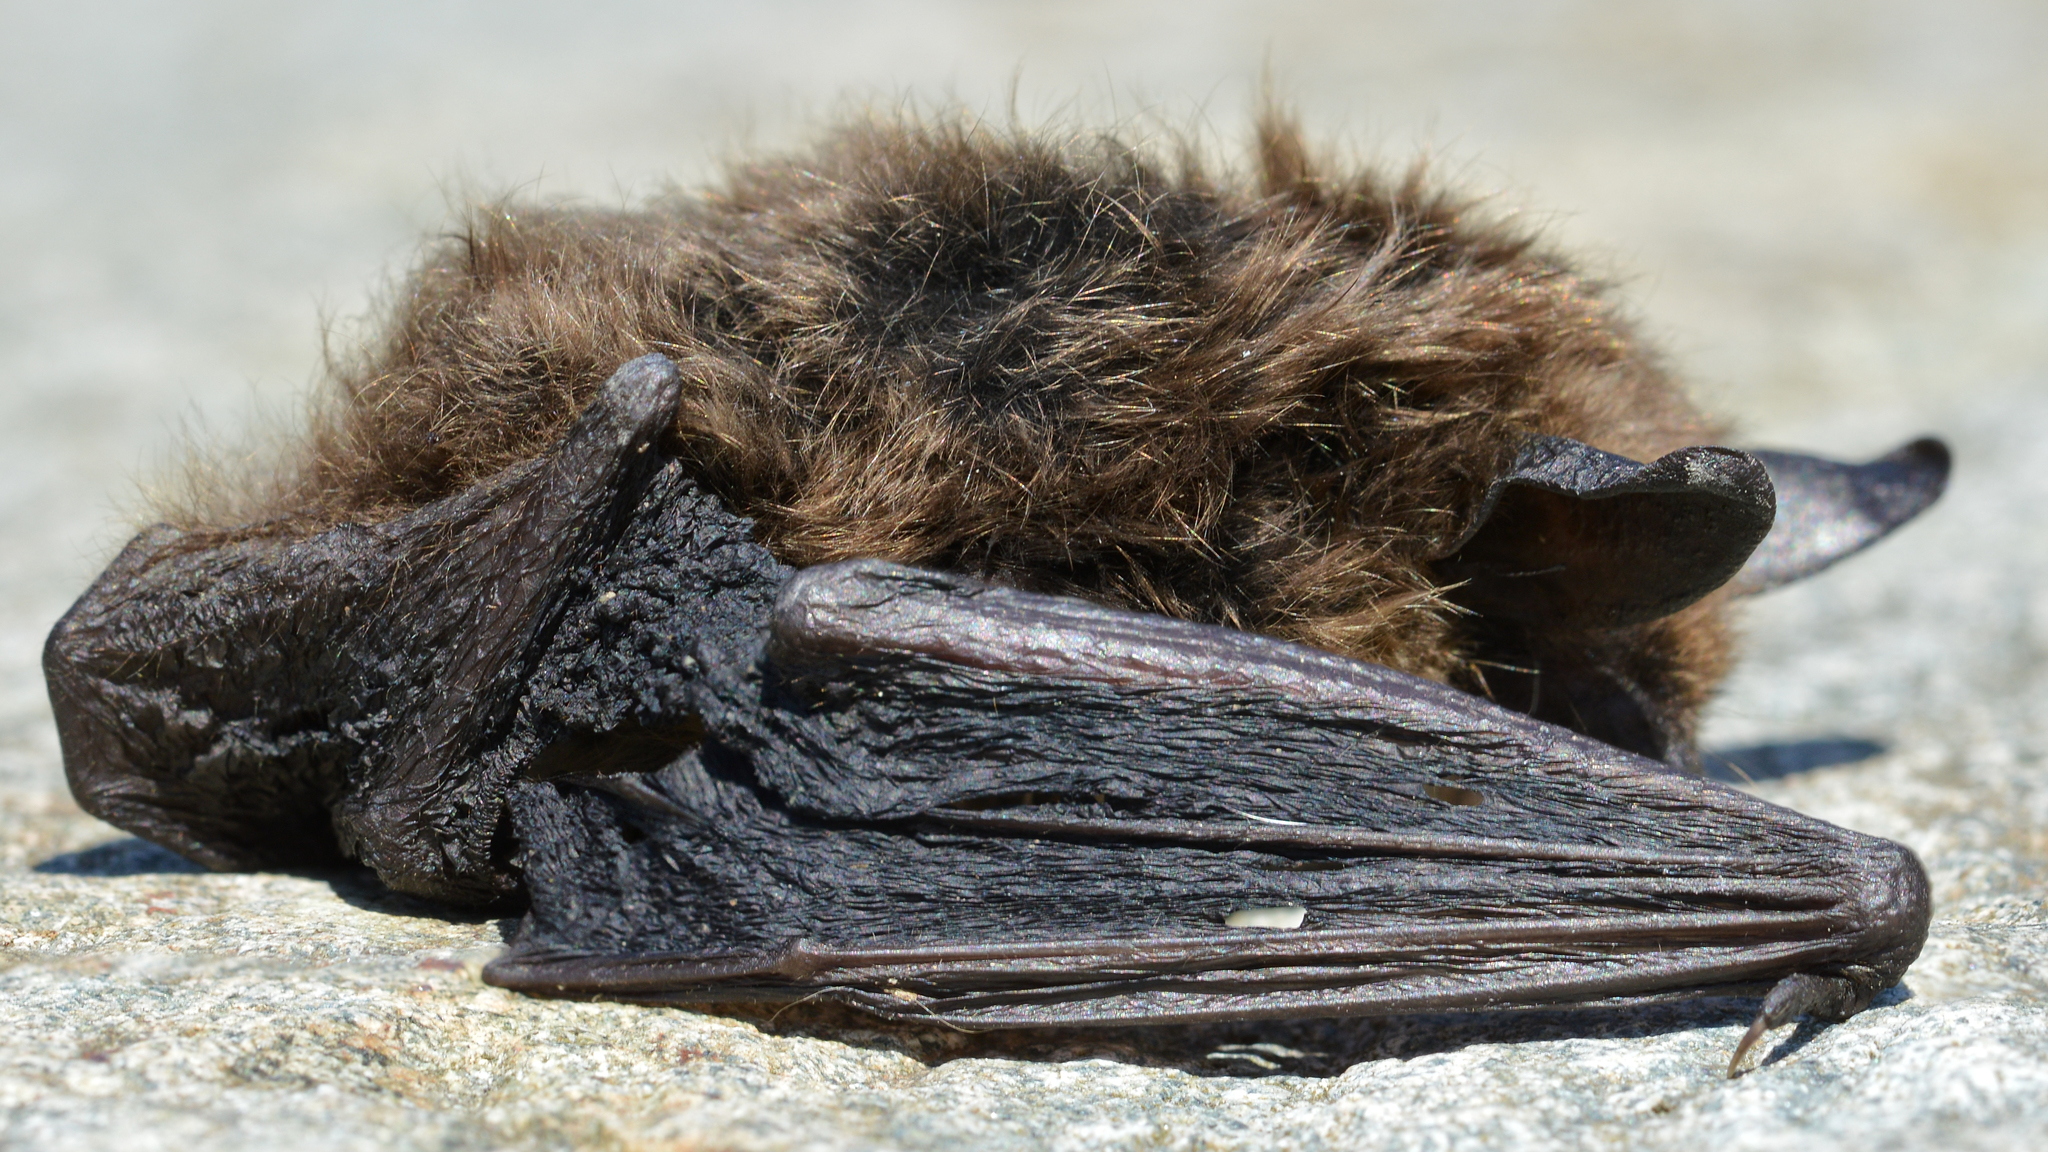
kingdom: Animalia
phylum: Chordata
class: Mammalia
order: Chiroptera
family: Vespertilionidae
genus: Myotis
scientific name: Myotis septentrionalis
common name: Northern myotis
